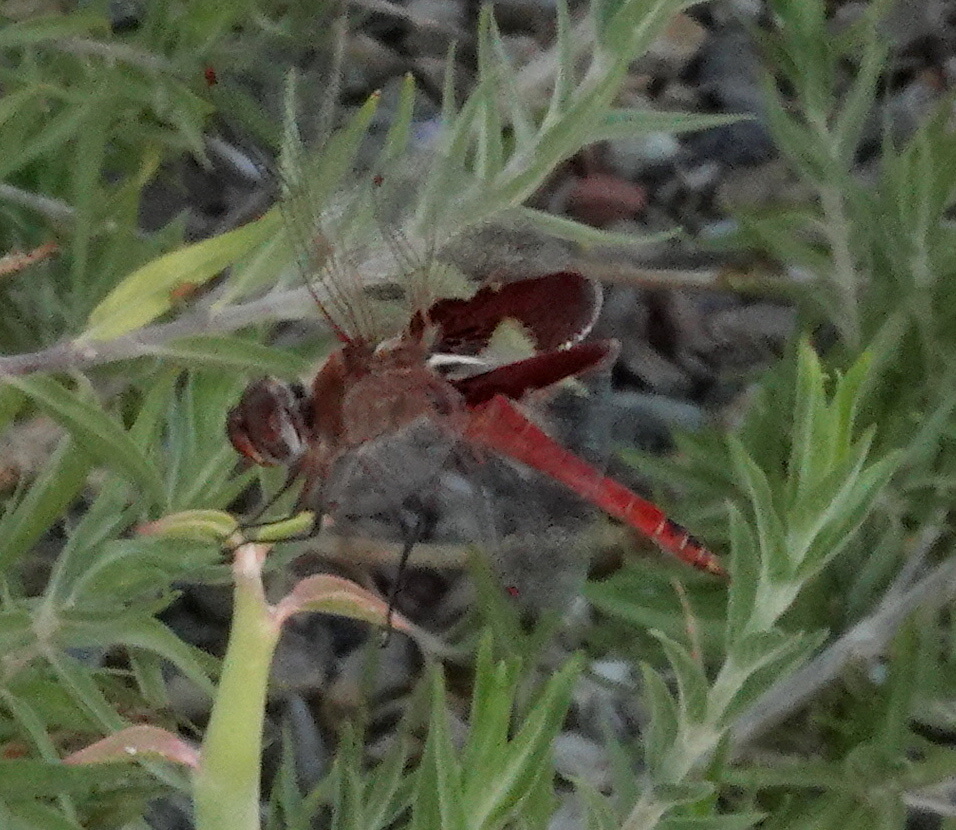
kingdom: Animalia
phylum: Arthropoda
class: Insecta
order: Odonata
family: Libellulidae
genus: Tramea
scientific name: Tramea onusta
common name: Red saddlebags
